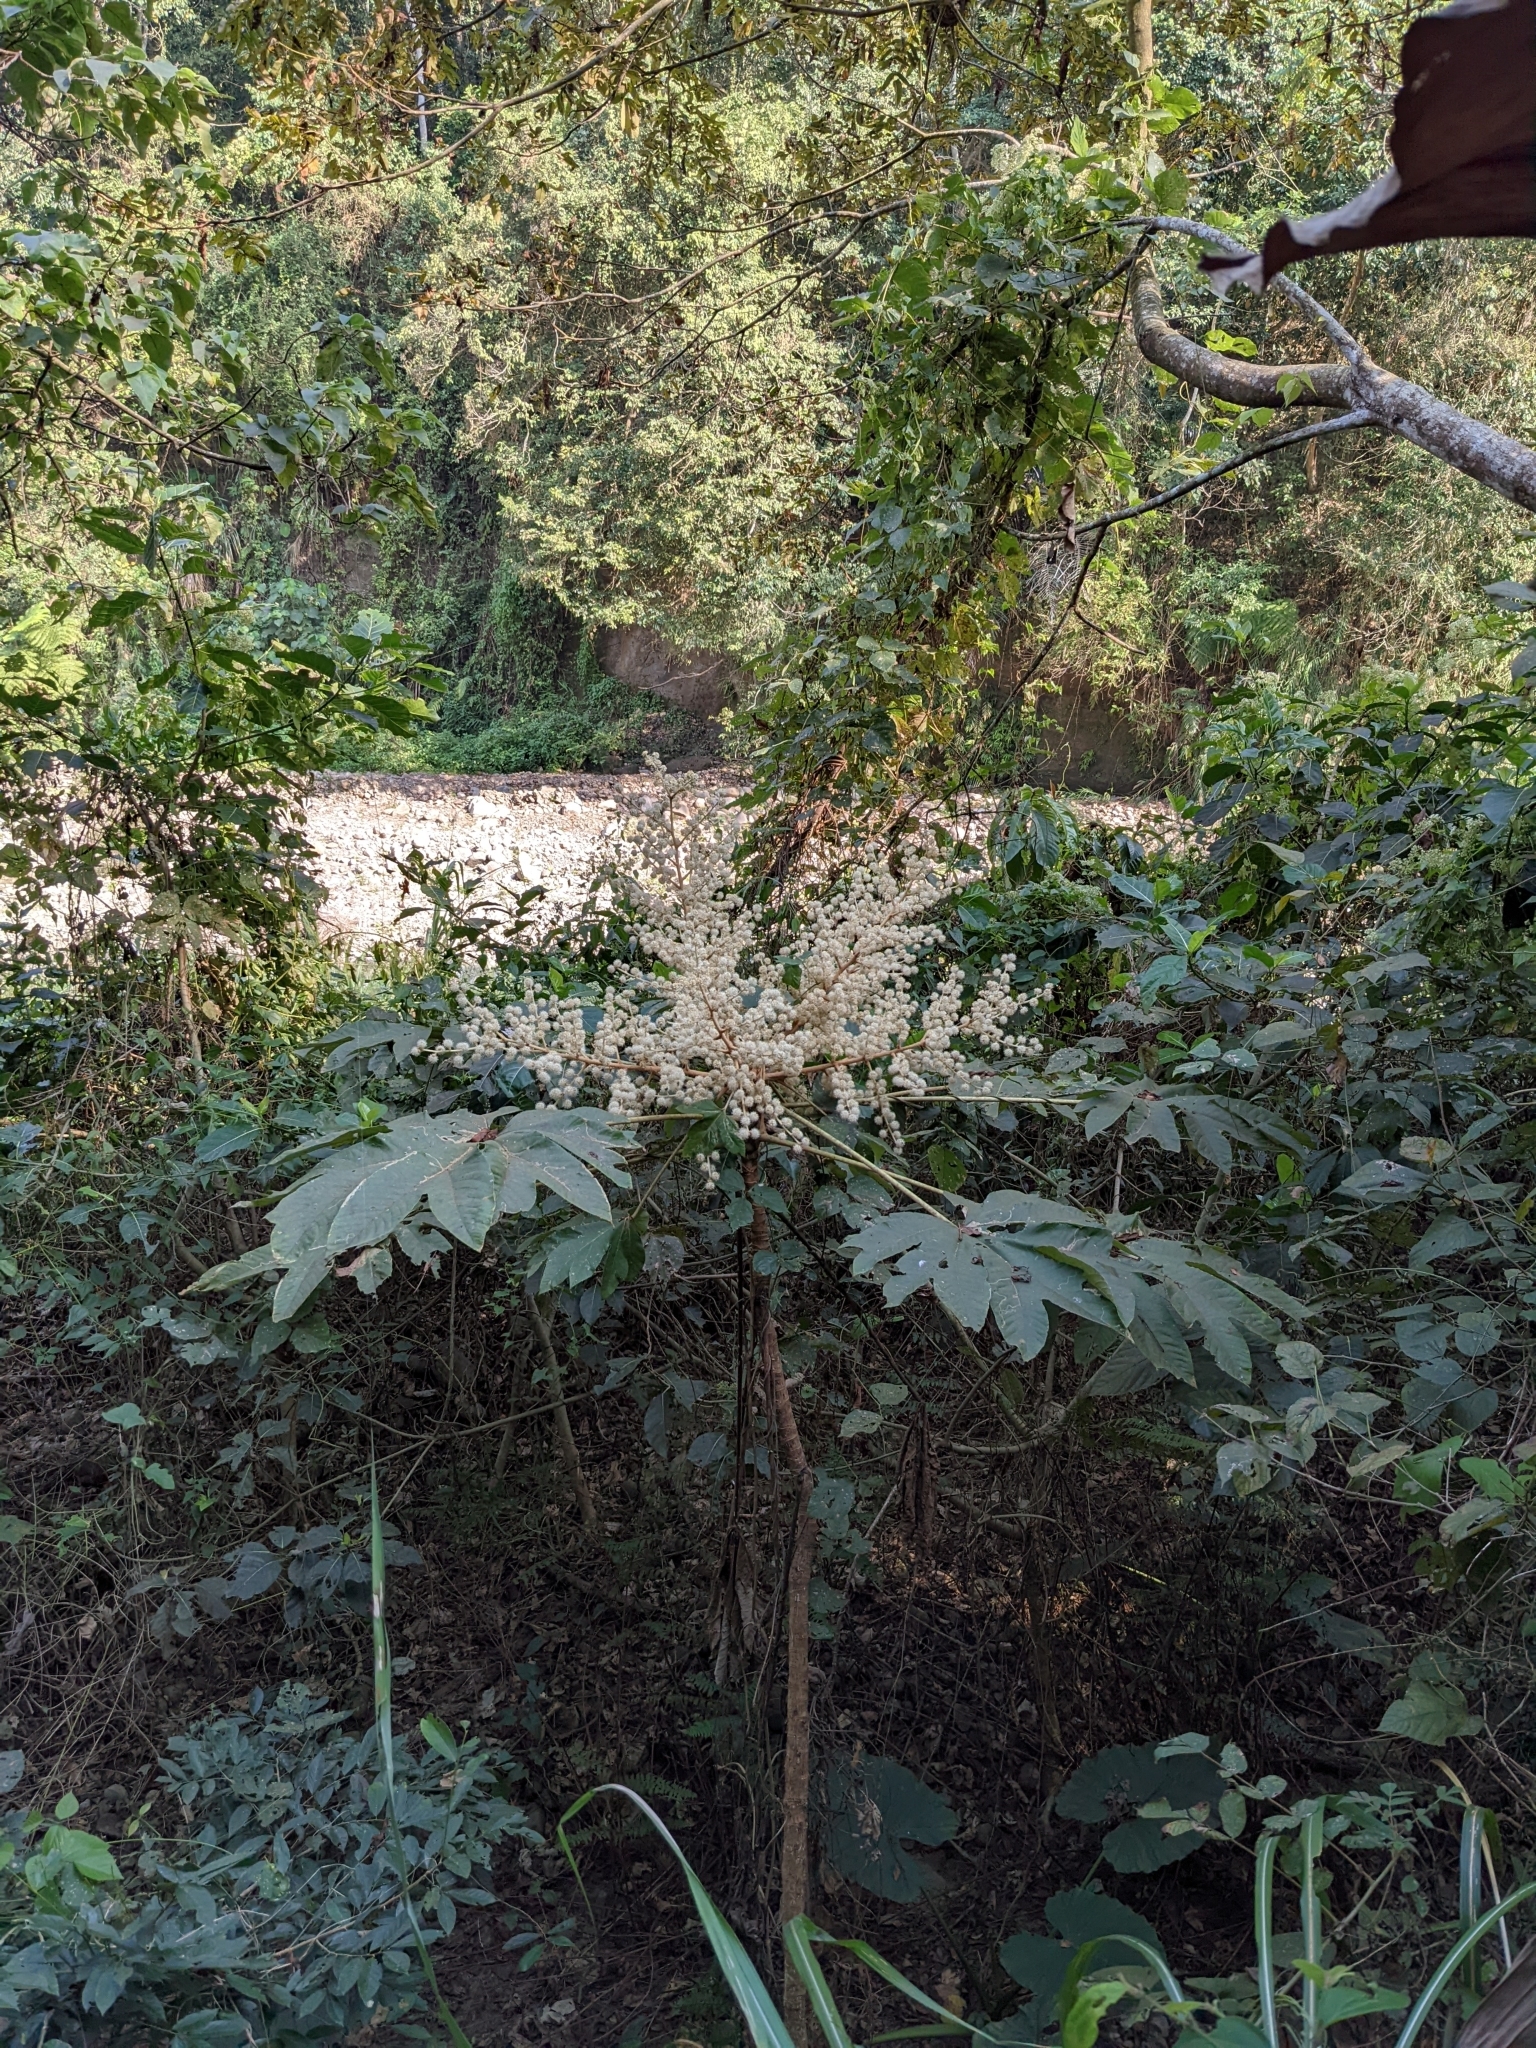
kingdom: Plantae
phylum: Tracheophyta
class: Magnoliopsida
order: Apiales
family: Araliaceae
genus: Tetrapanax
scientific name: Tetrapanax papyrifer
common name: Rice-paper plant
